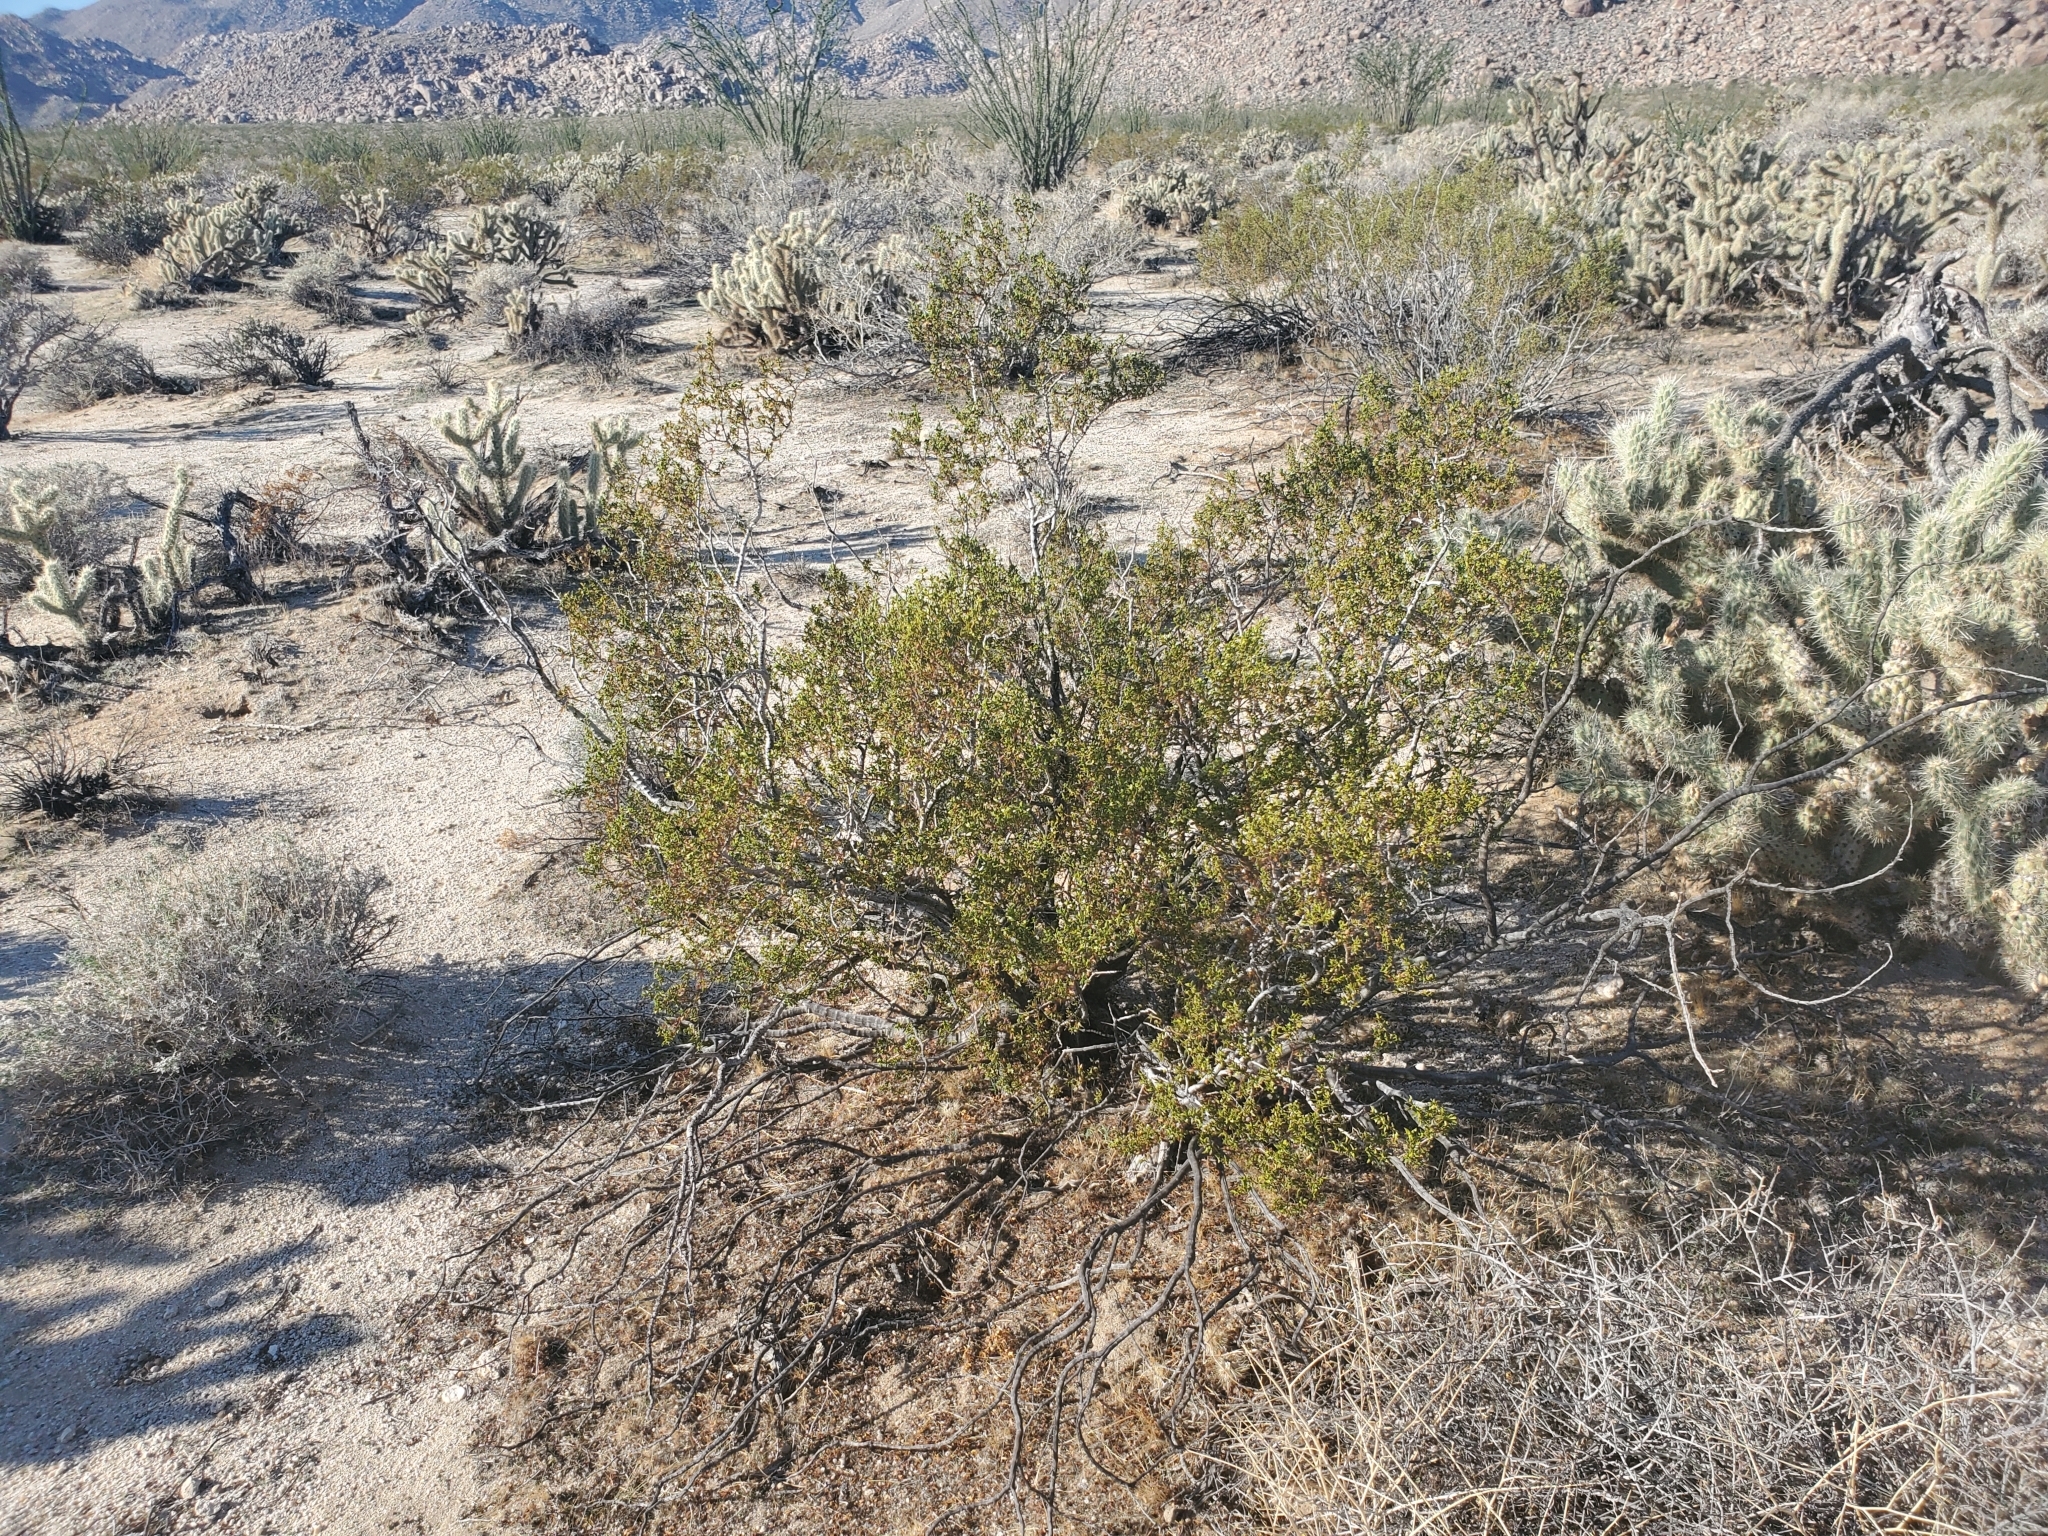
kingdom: Plantae
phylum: Tracheophyta
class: Magnoliopsida
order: Zygophyllales
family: Zygophyllaceae
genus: Larrea
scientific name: Larrea tridentata
